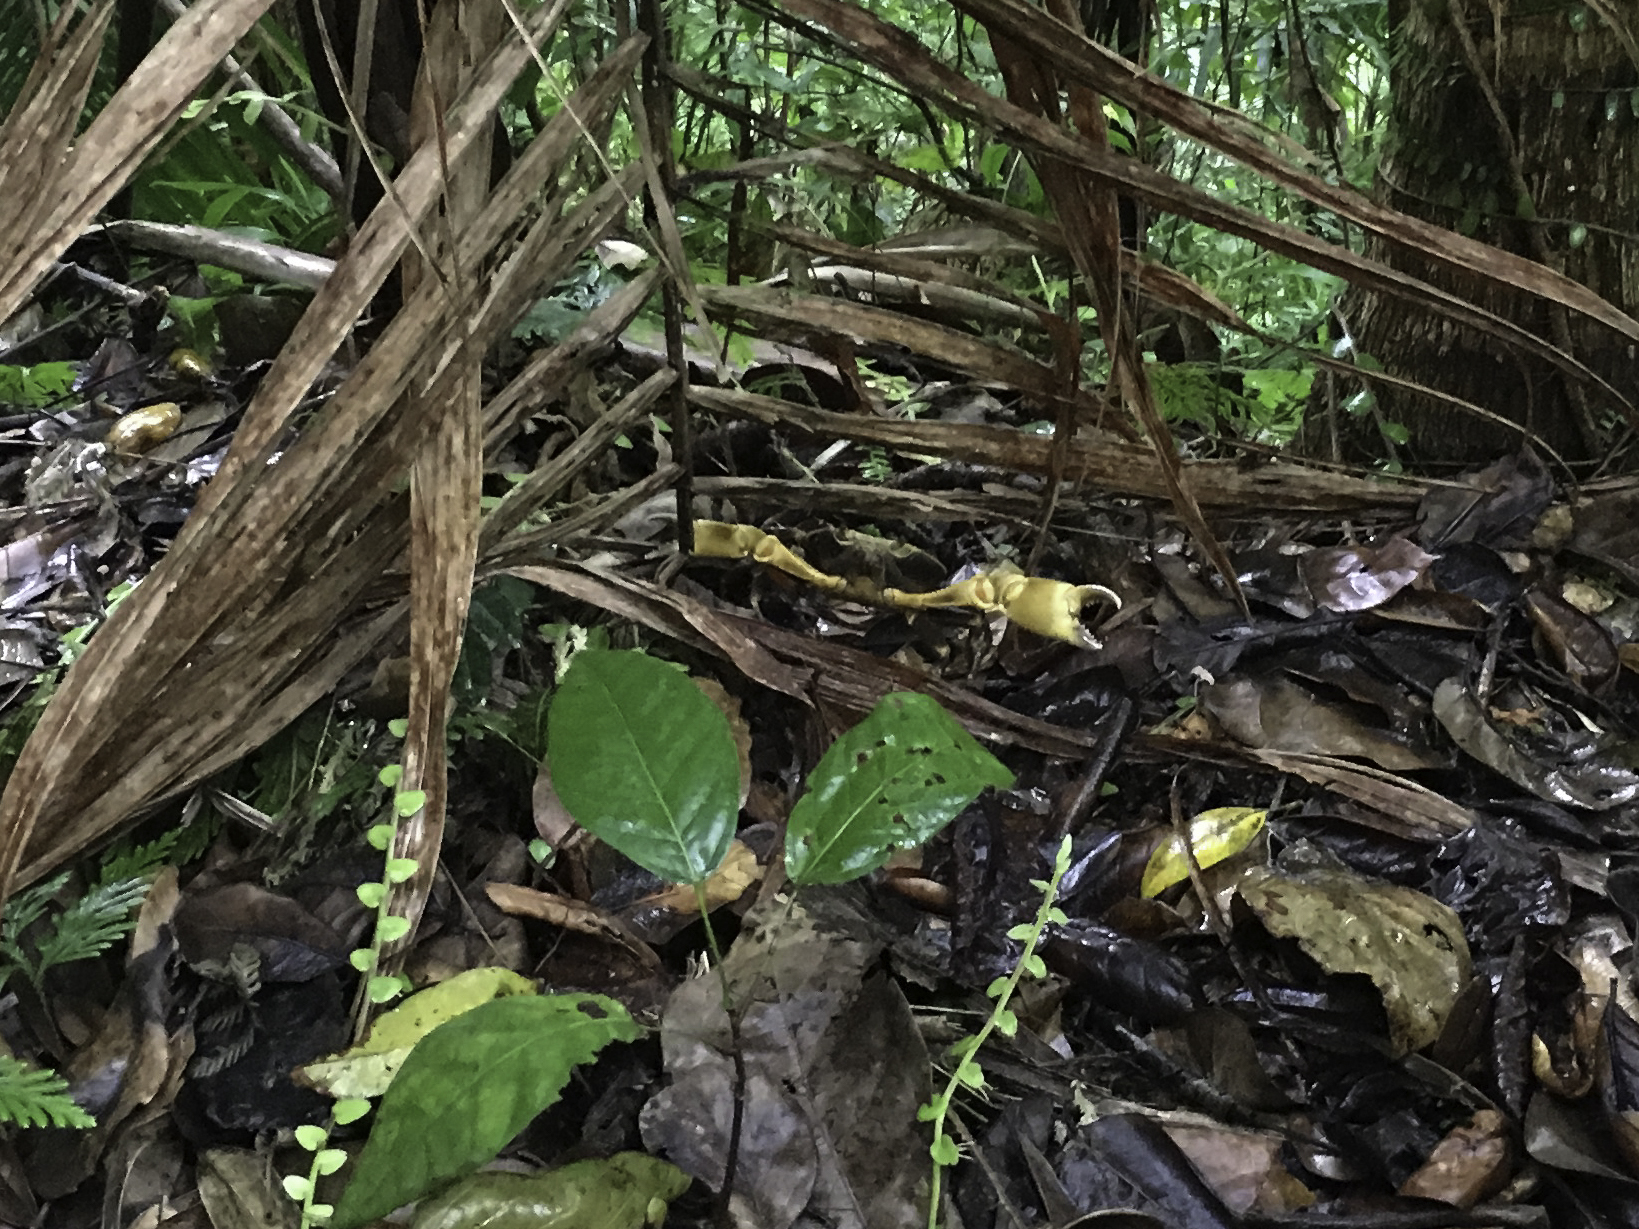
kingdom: Animalia
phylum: Arthropoda
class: Malacostraca
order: Decapoda
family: Pseudothelphusidae
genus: Guinotia
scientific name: Guinotia dentata
